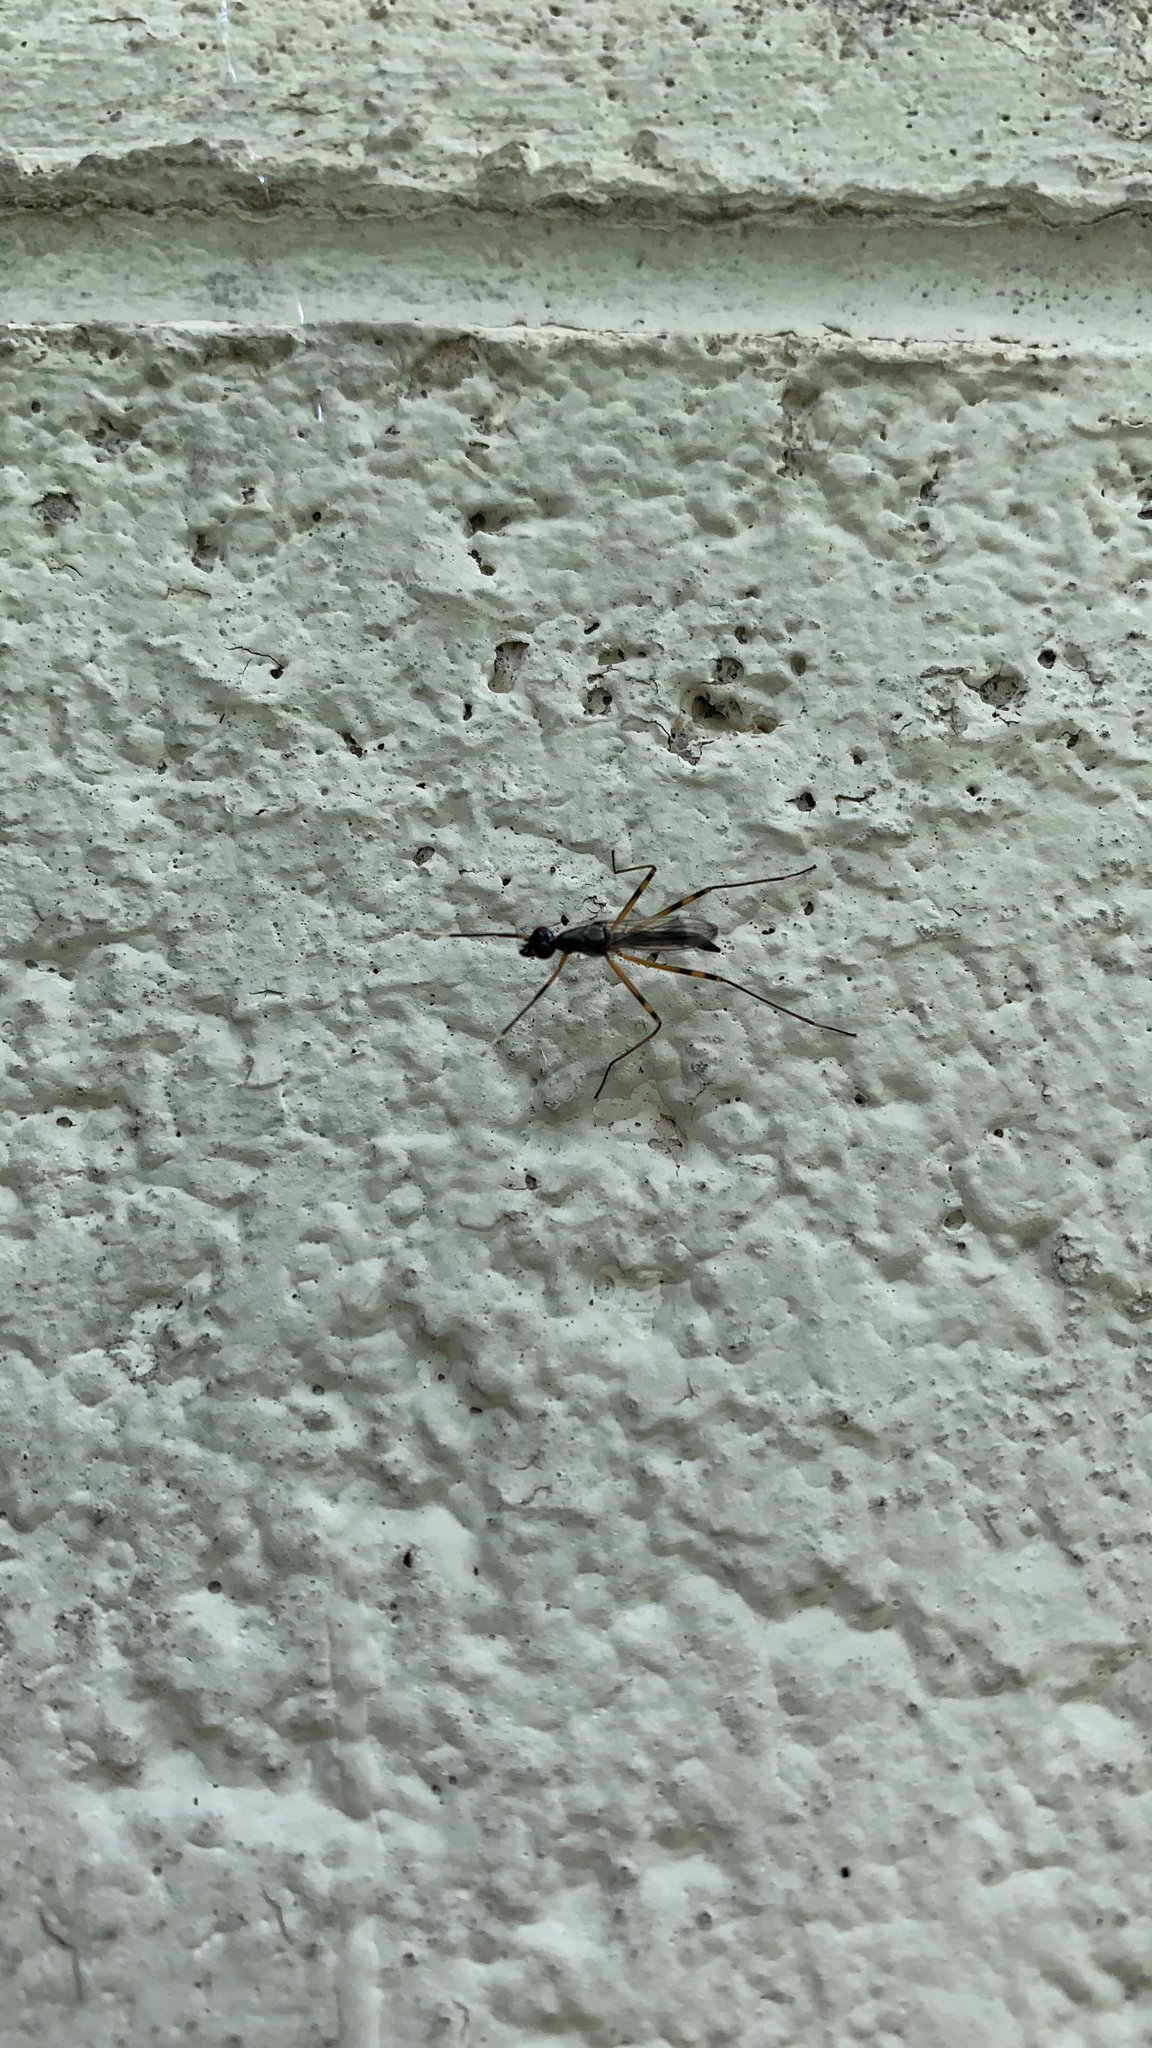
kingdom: Animalia
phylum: Arthropoda
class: Insecta
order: Diptera
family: Micropezidae
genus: Rainieria
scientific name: Rainieria antennaepes
